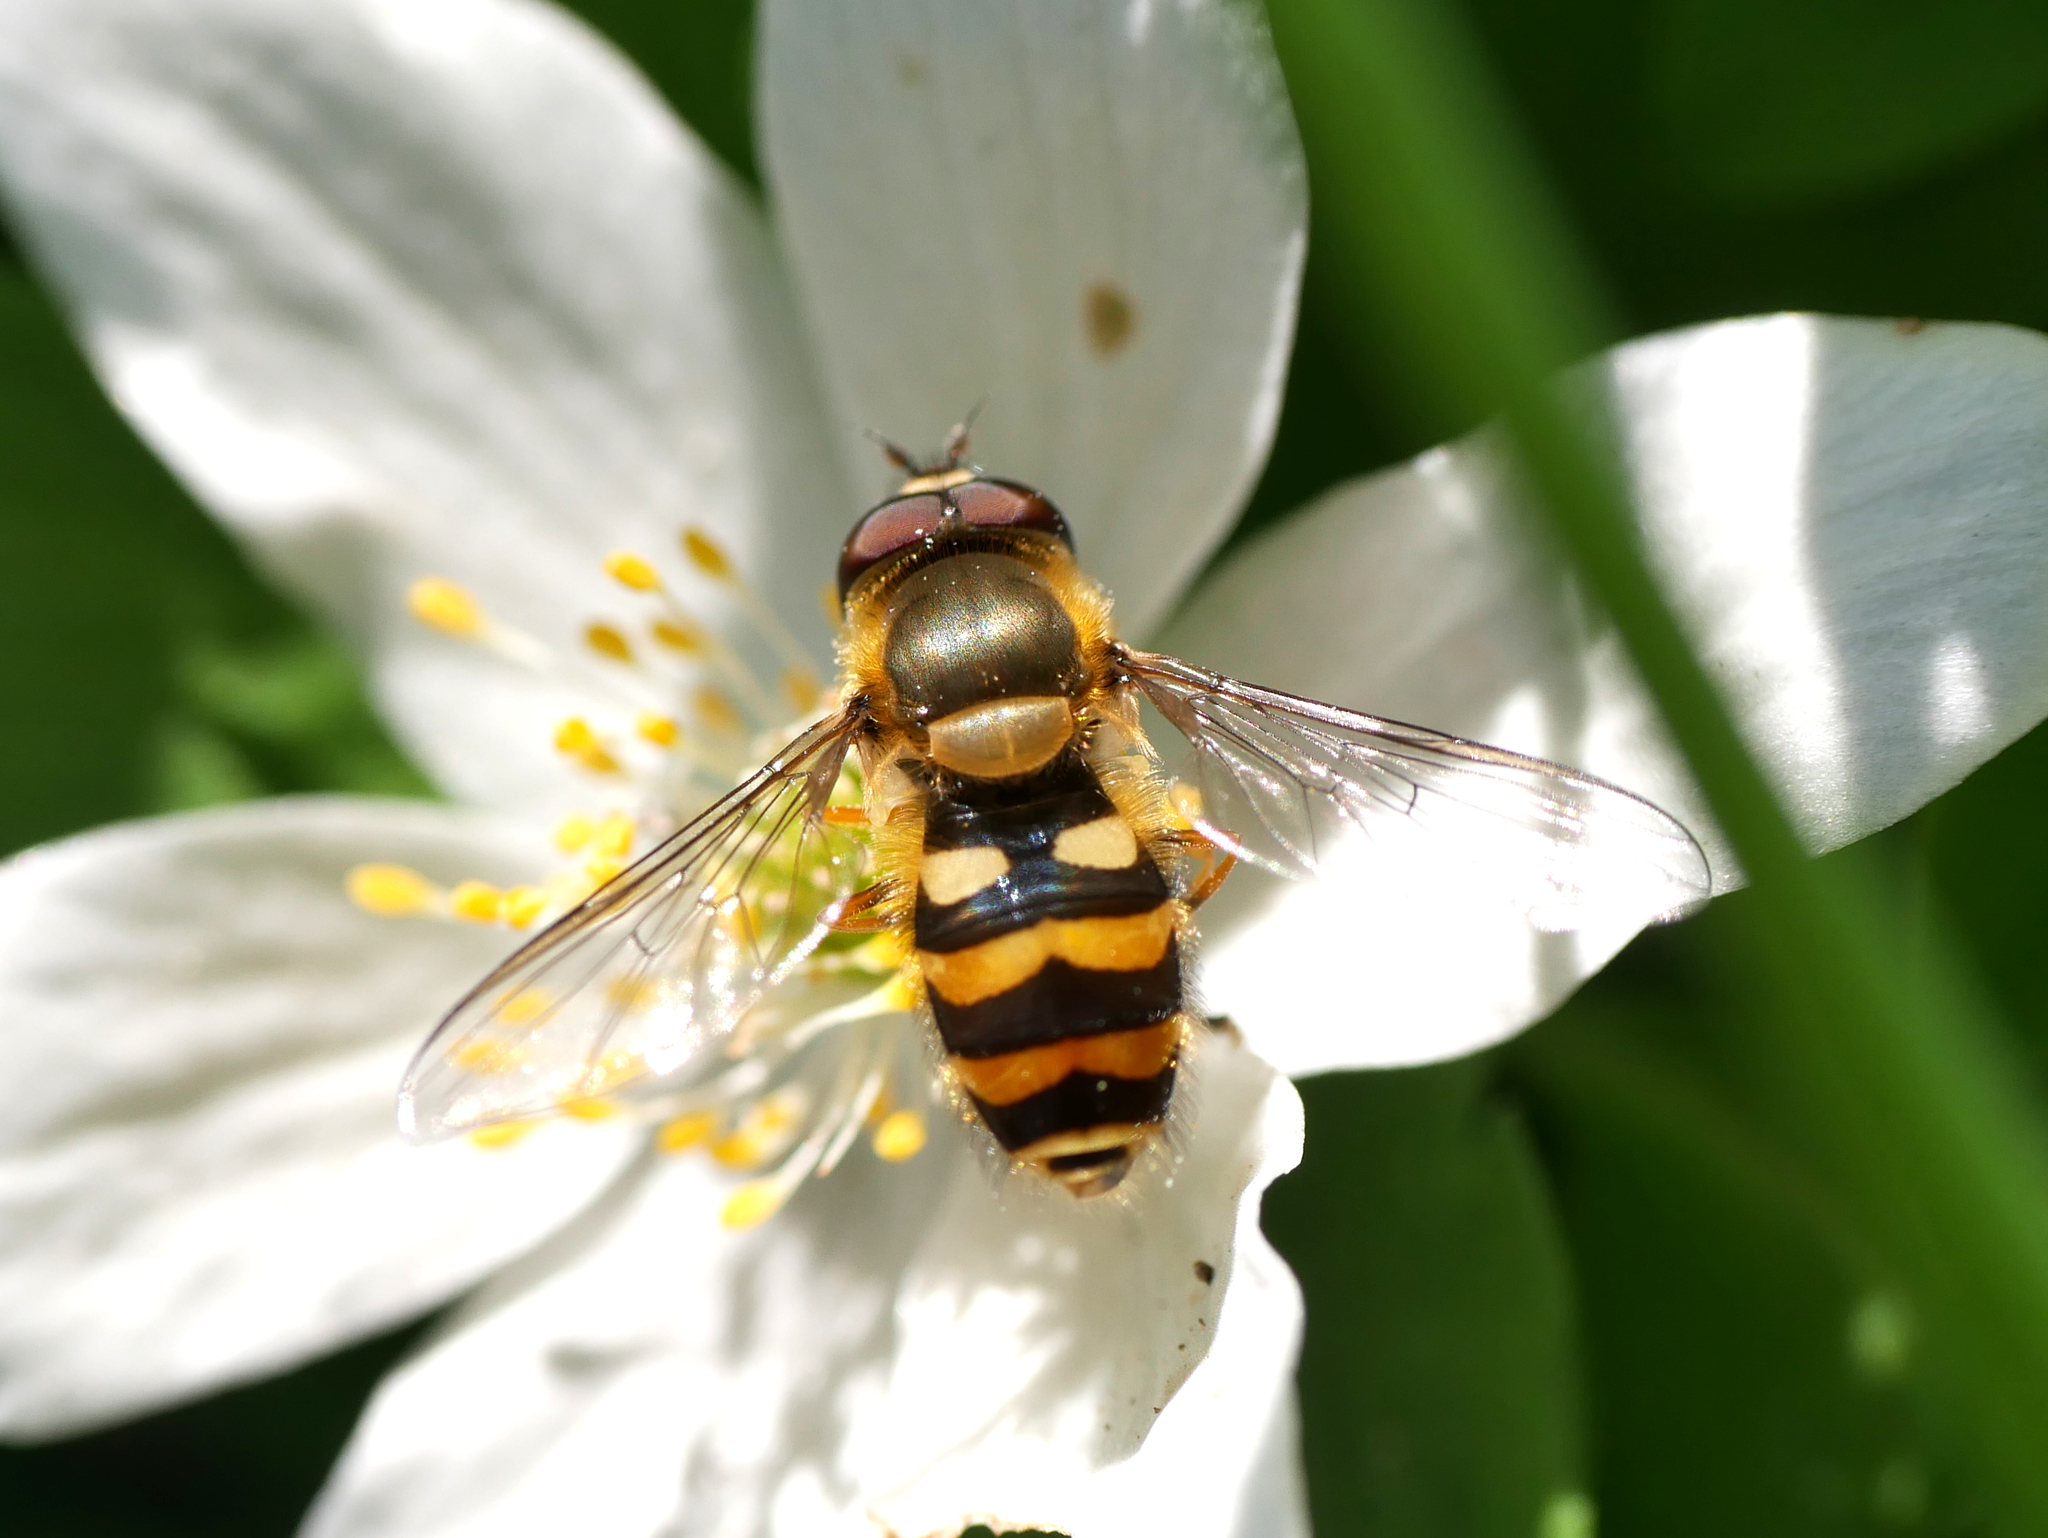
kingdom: Animalia
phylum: Arthropoda
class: Insecta
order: Diptera
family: Syrphidae
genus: Syrphus
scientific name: Syrphus
